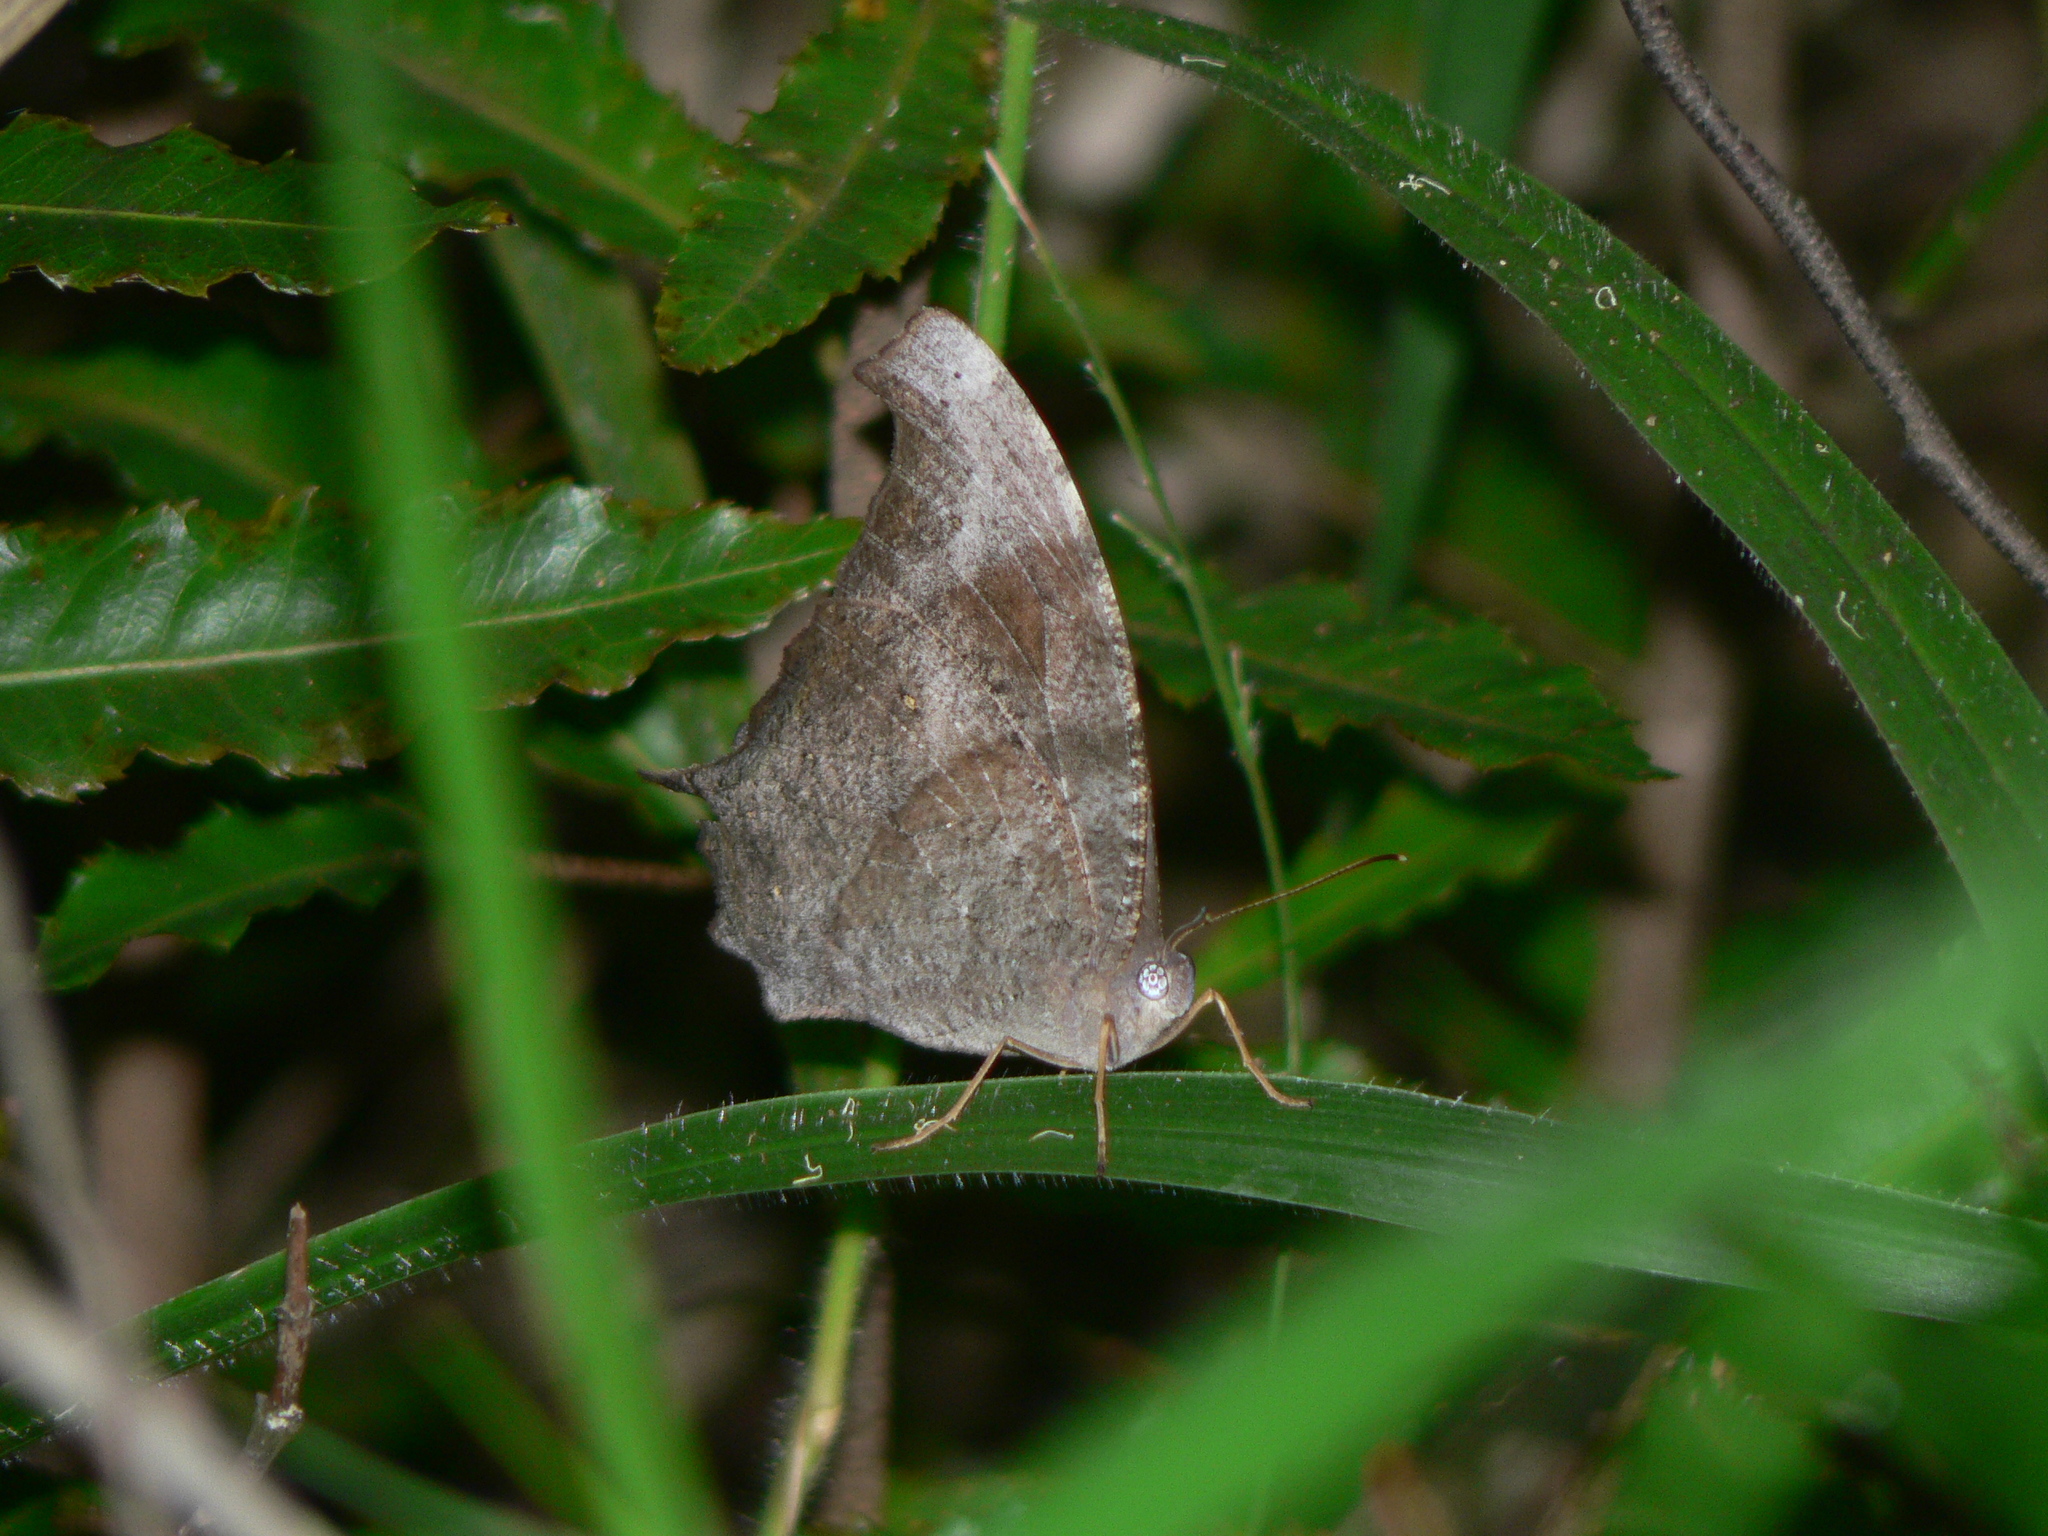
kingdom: Animalia
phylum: Arthropoda
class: Insecta
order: Lepidoptera
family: Nymphalidae
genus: Melanitis
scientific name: Melanitis leda
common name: Twilight brown
